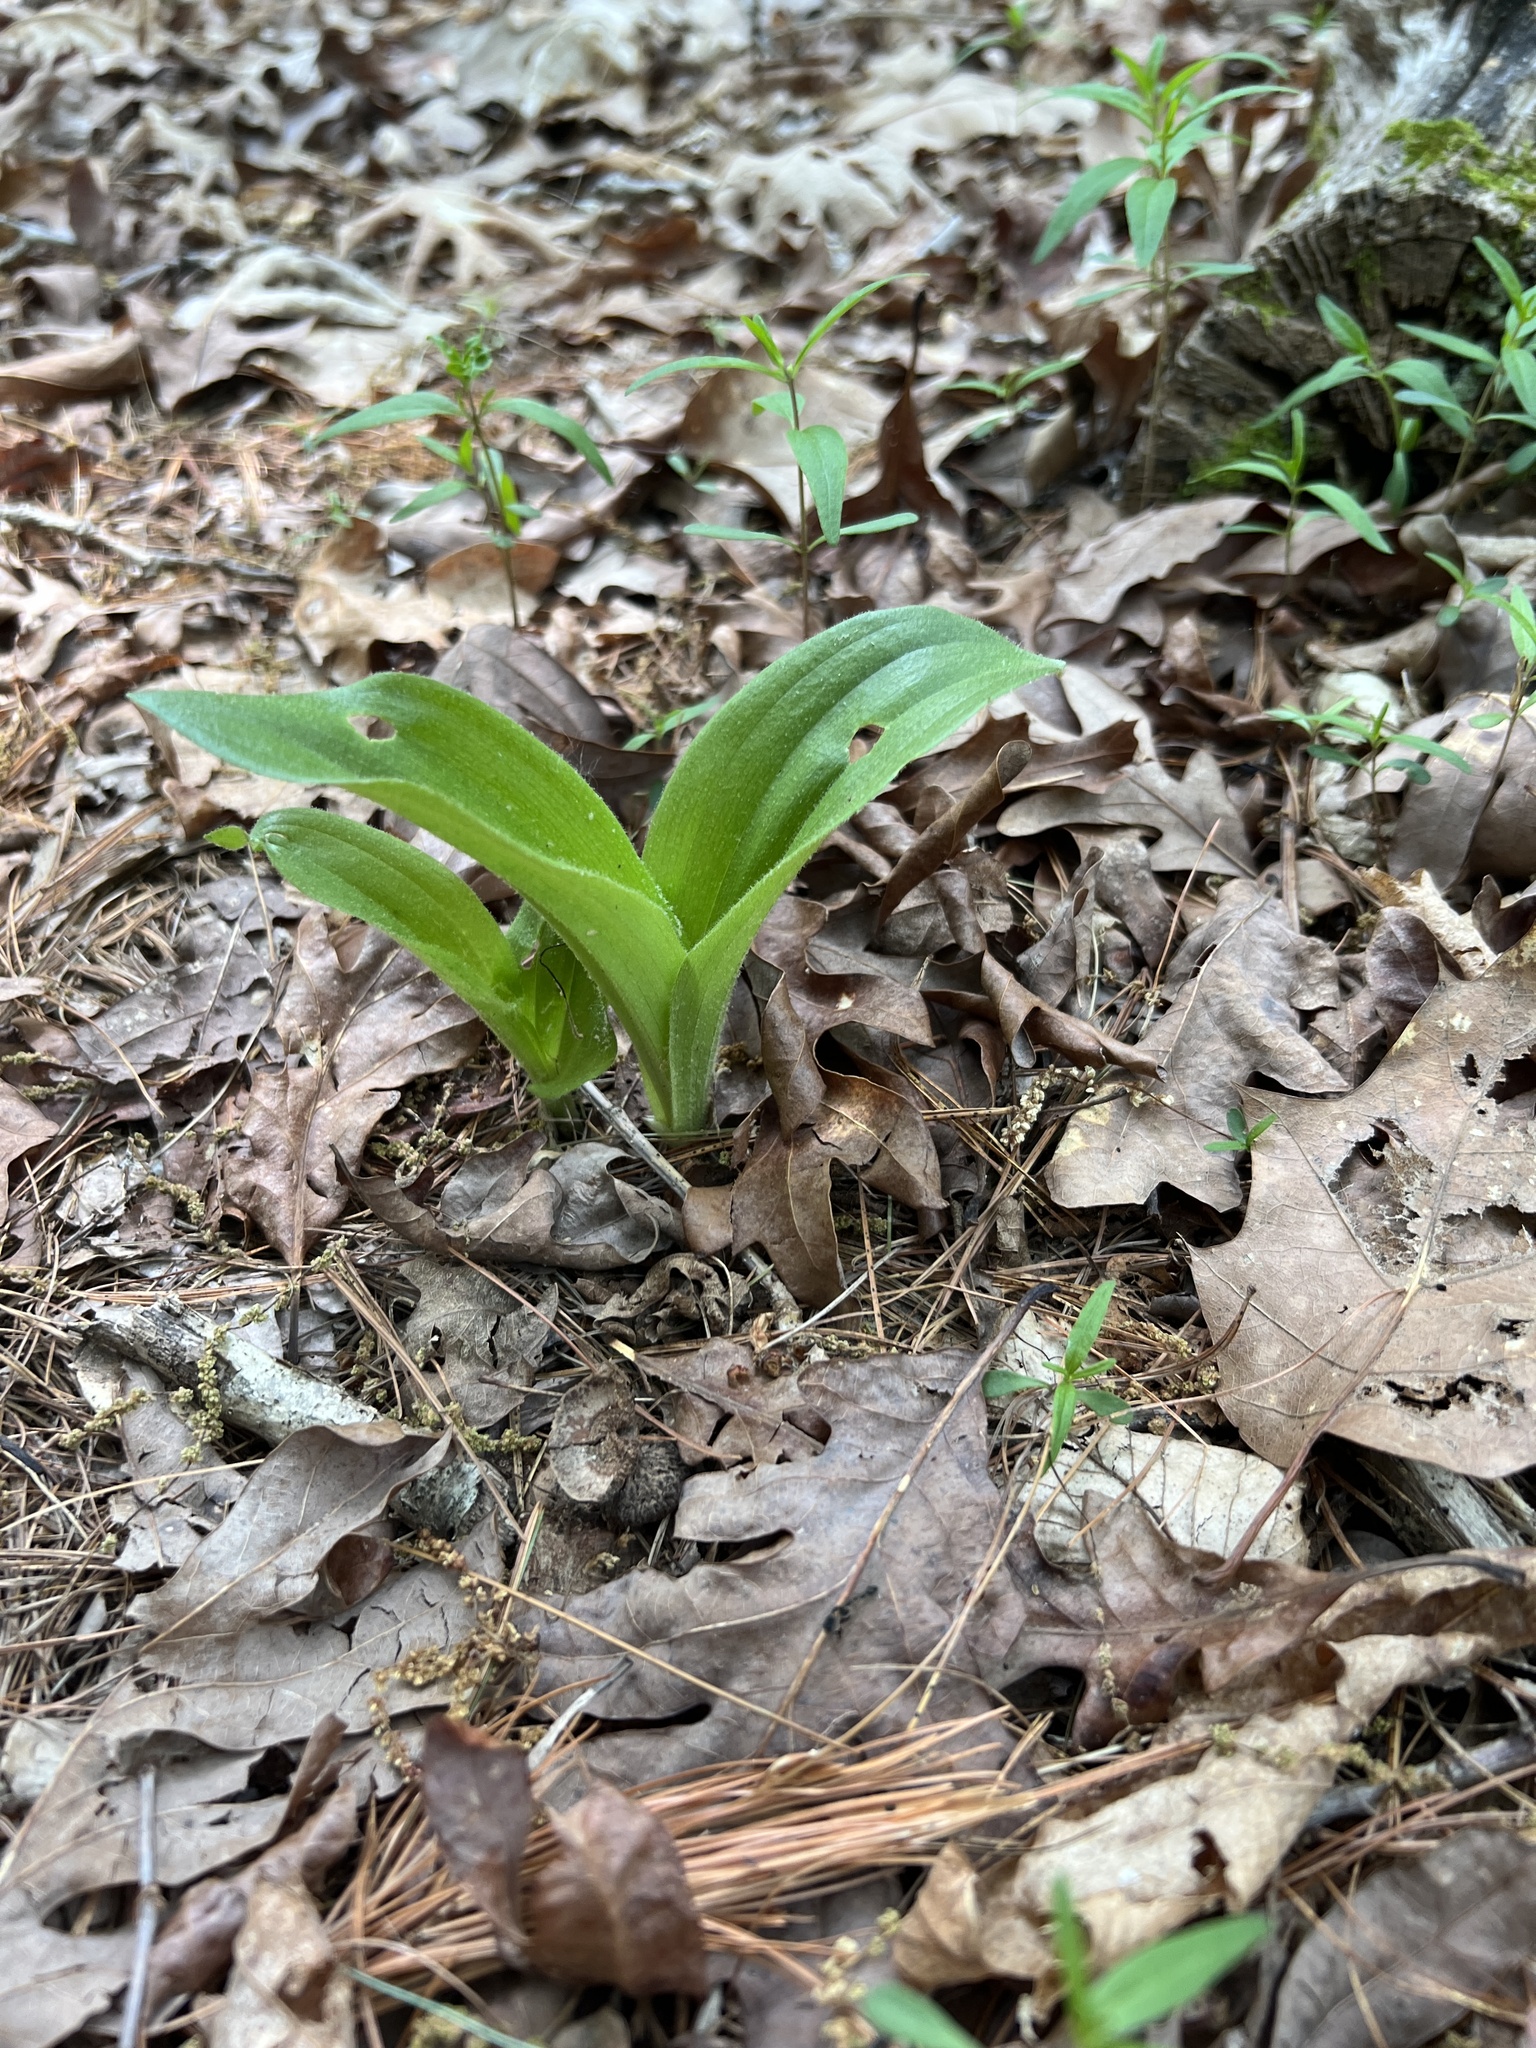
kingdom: Plantae
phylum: Tracheophyta
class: Liliopsida
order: Asparagales
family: Orchidaceae
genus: Cypripedium
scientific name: Cypripedium acaule
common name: Pink lady's-slipper
